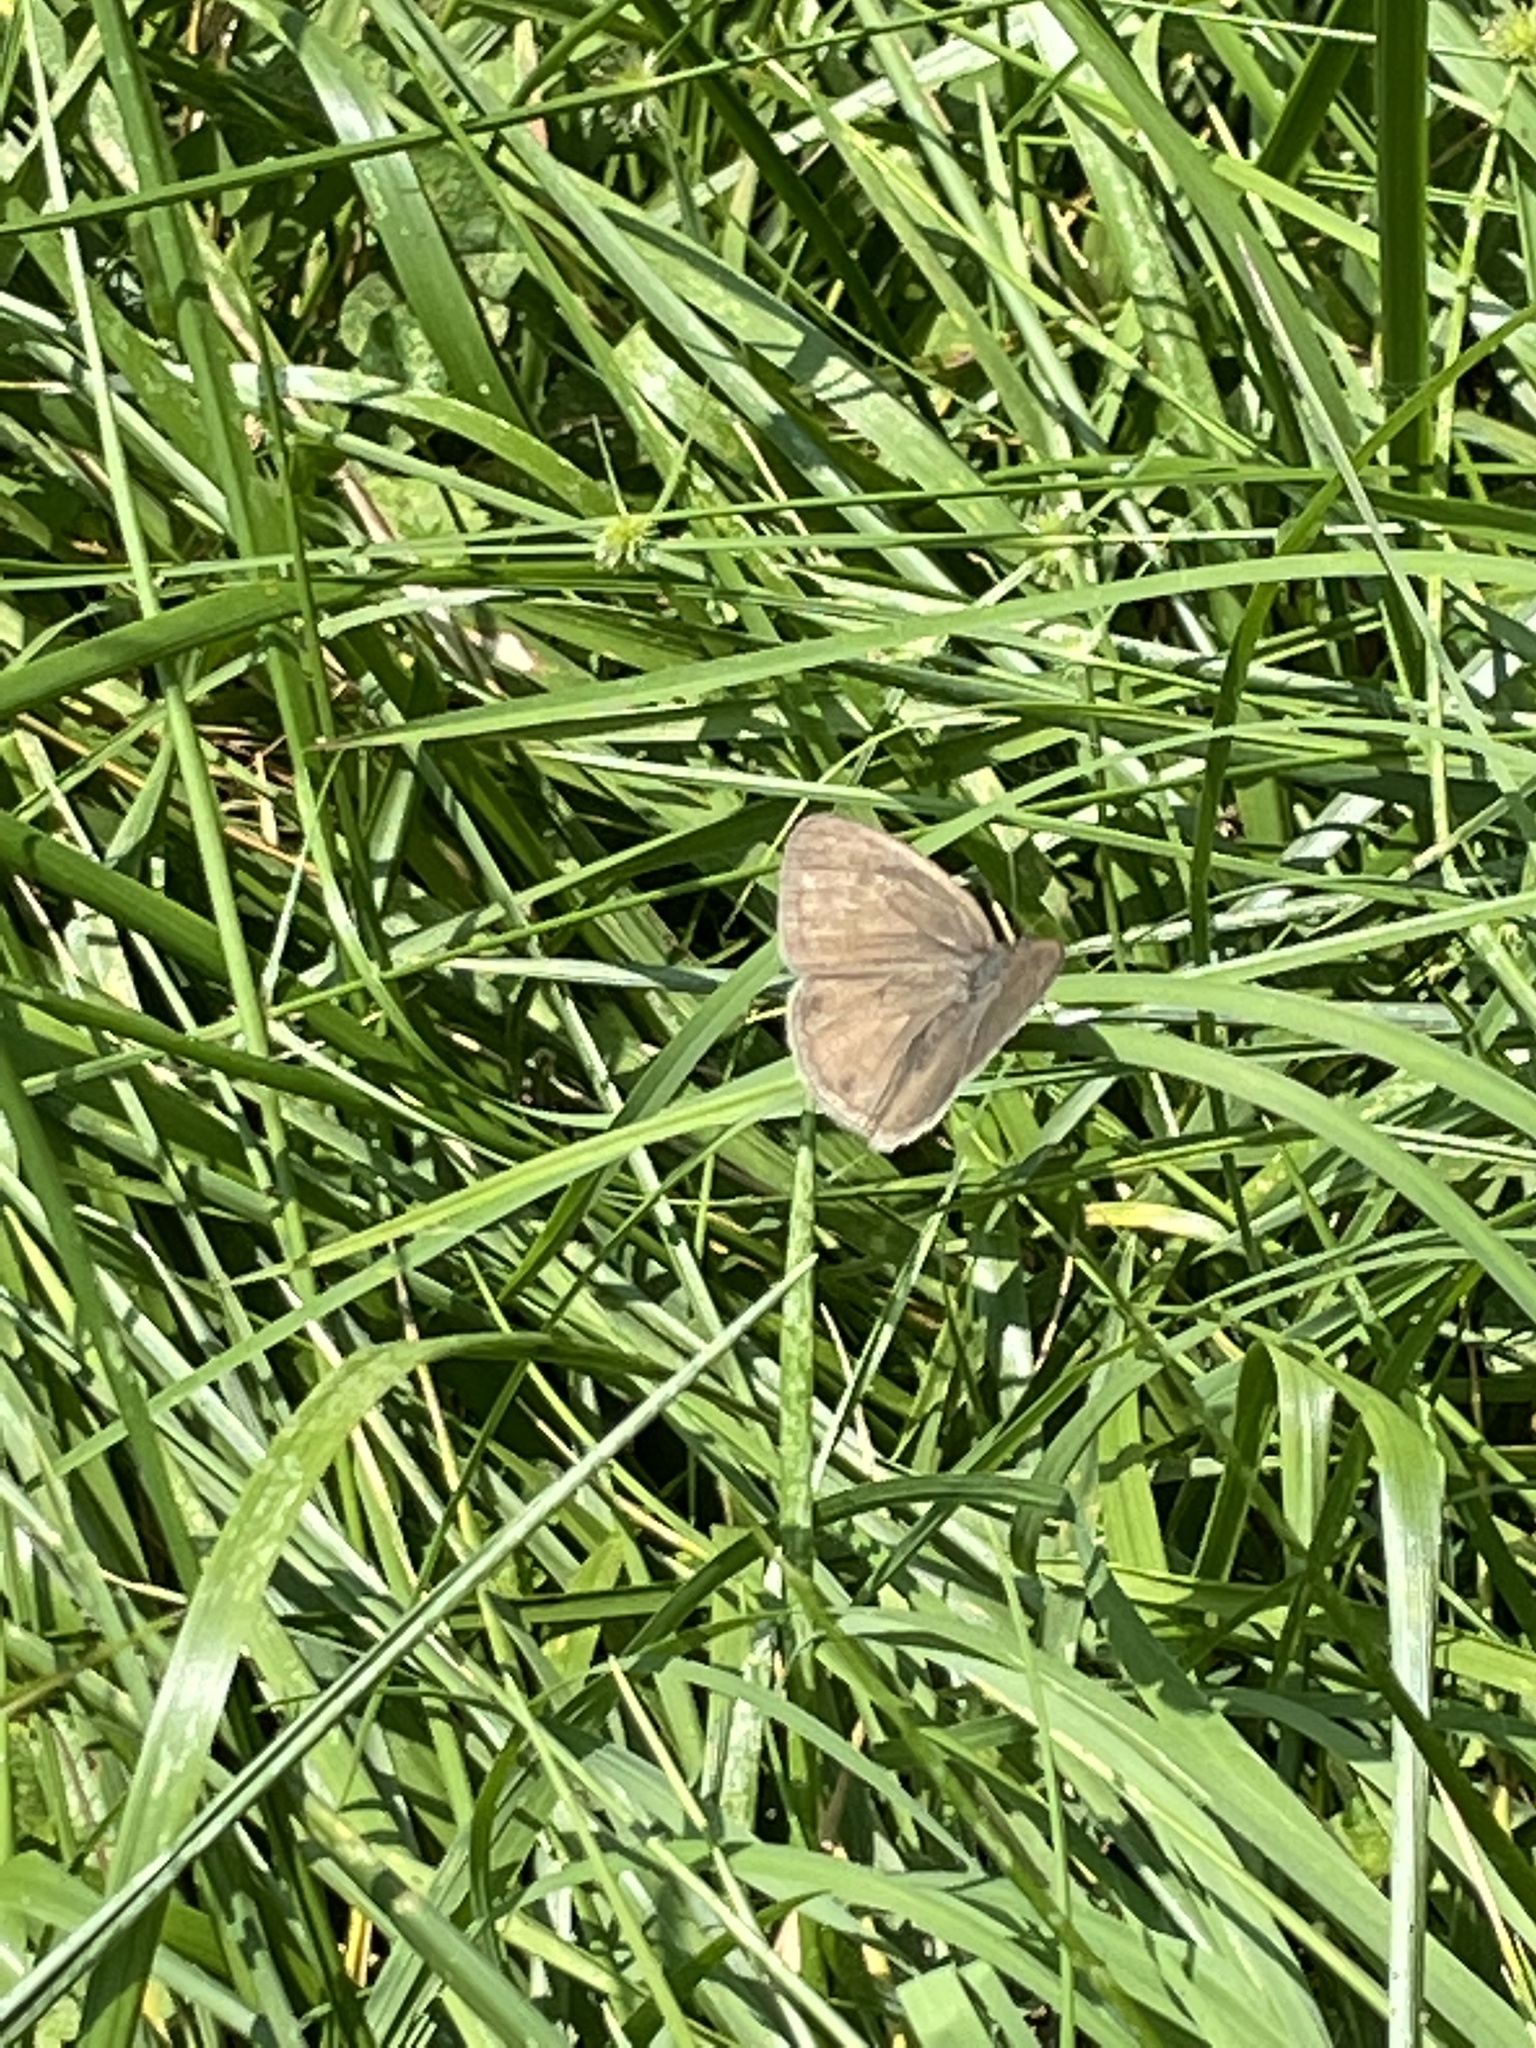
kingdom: Animalia
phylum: Arthropoda
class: Insecta
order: Lepidoptera
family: Nymphalidae
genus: Hermeuptychia
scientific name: Hermeuptychia hermes
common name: Hermes satyr
